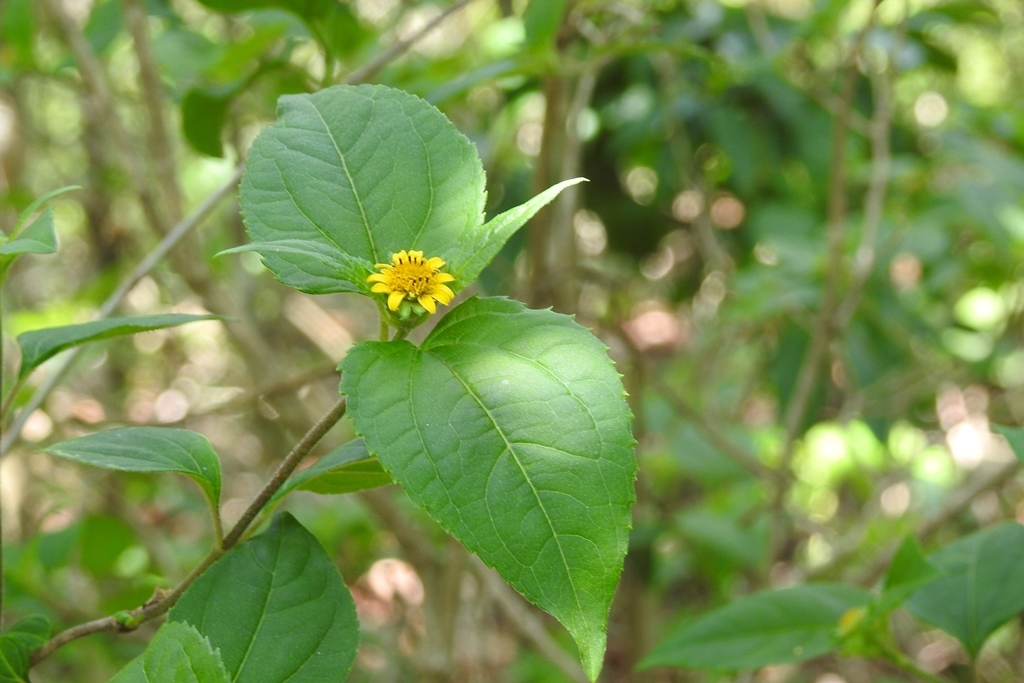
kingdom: Plantae
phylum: Tracheophyta
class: Magnoliopsida
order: Asterales
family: Asteraceae
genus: Lasianthaea
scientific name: Lasianthaea fruticosa
